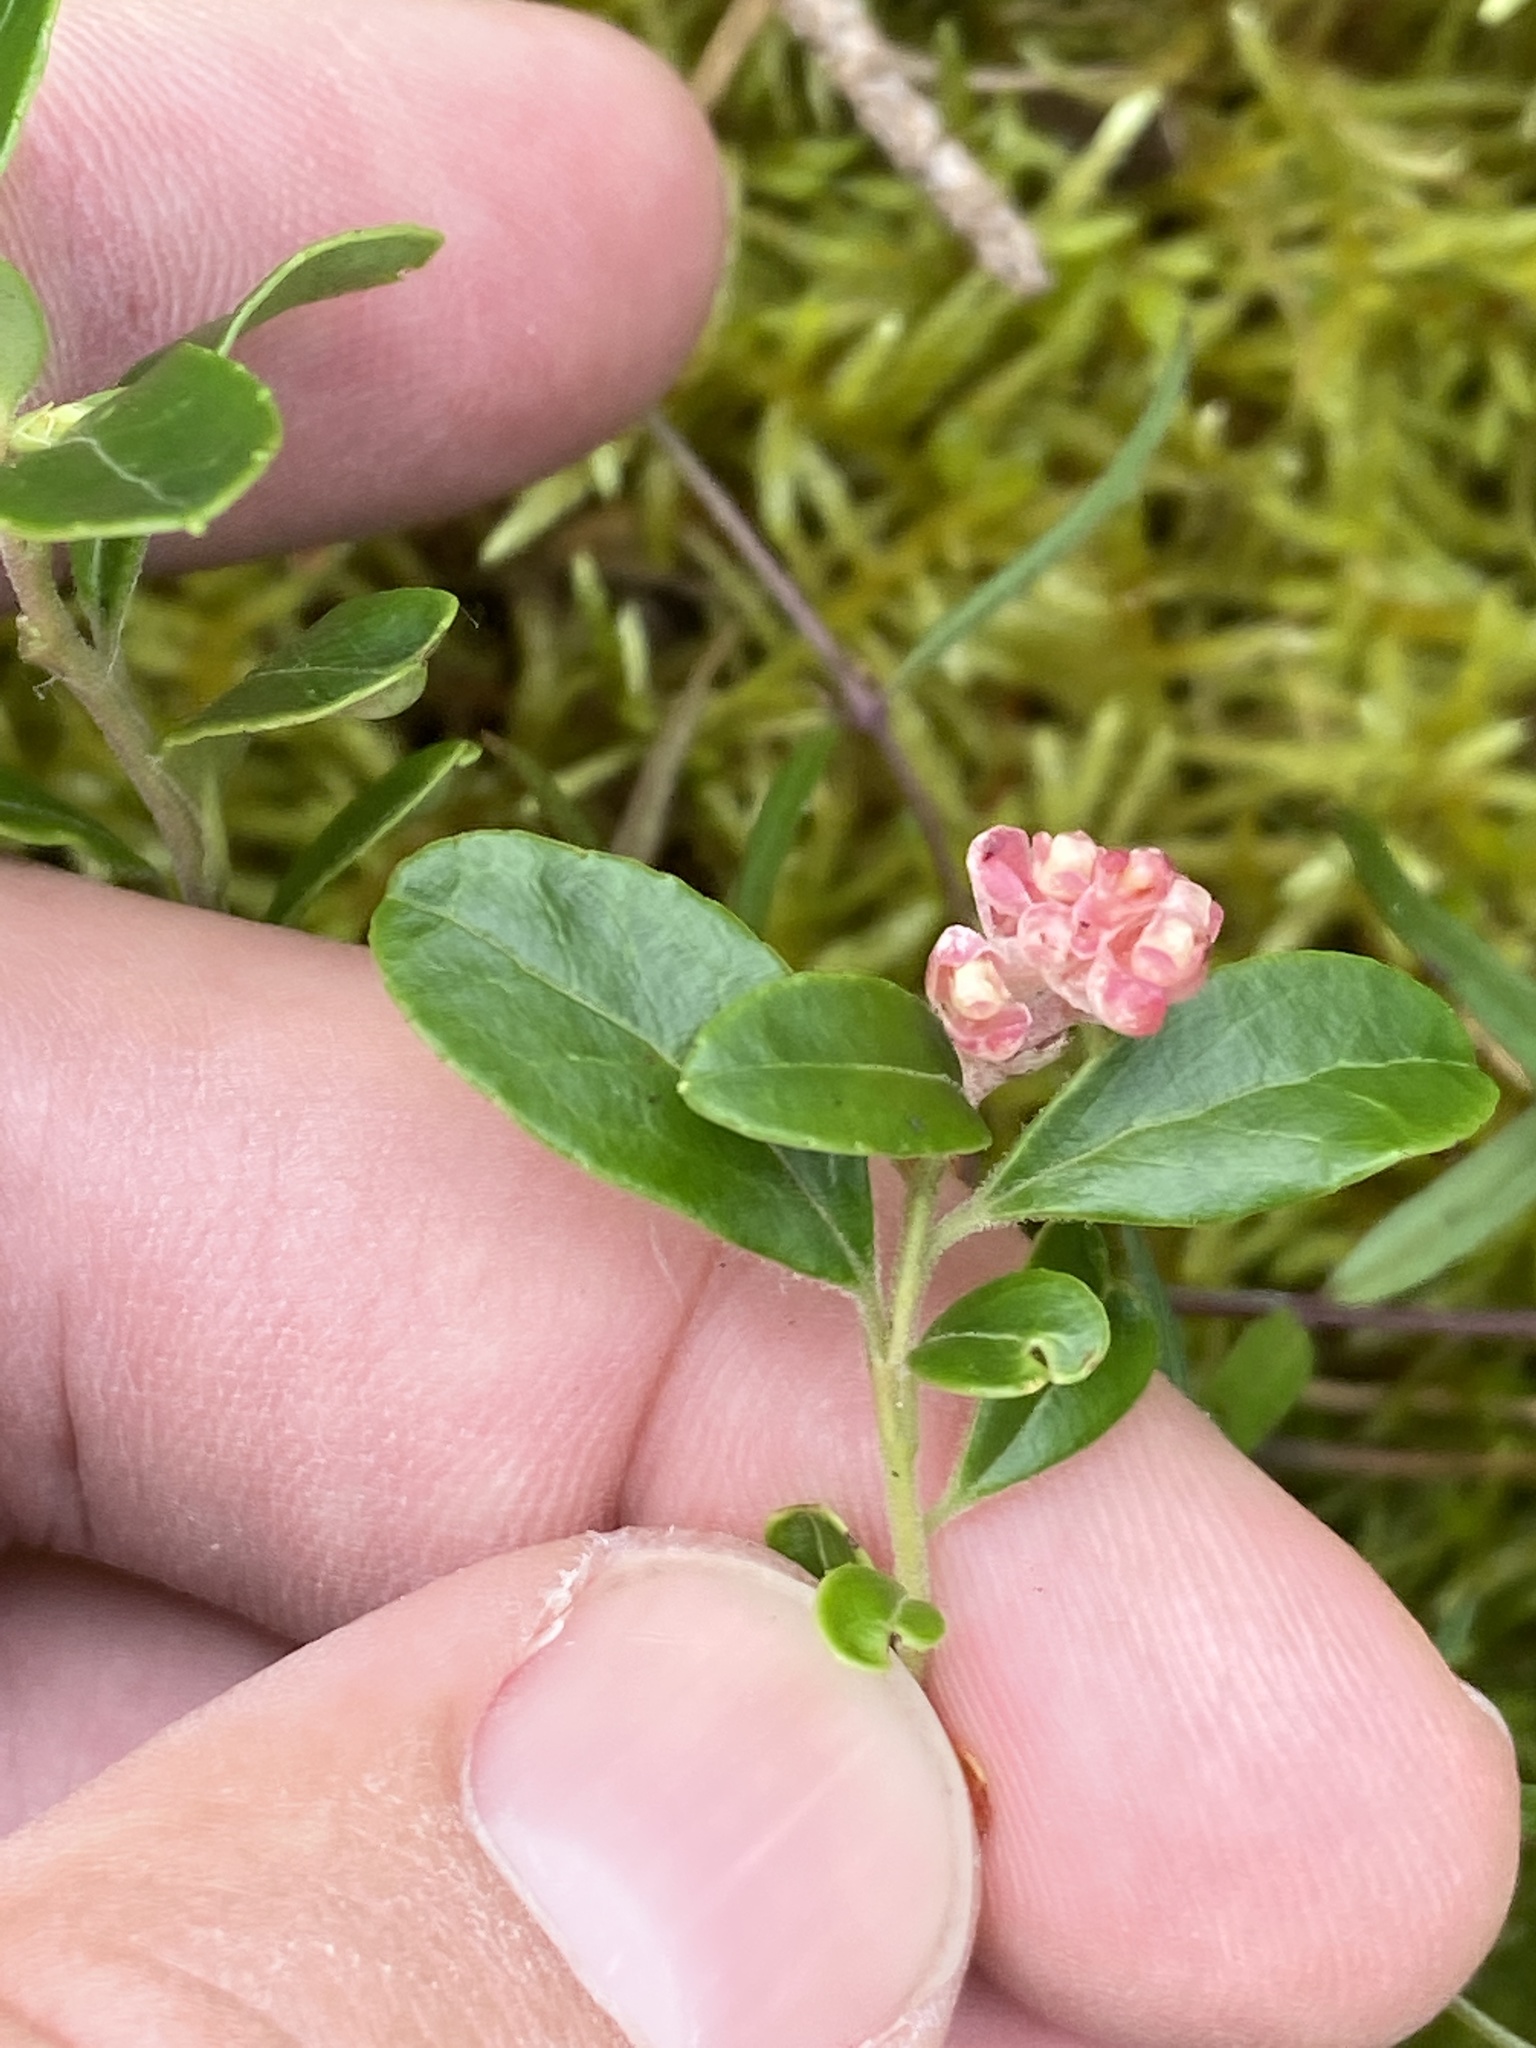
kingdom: Plantae
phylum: Tracheophyta
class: Magnoliopsida
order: Ericales
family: Ericaceae
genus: Vaccinium
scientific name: Vaccinium vitis-idaea
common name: Cowberry
